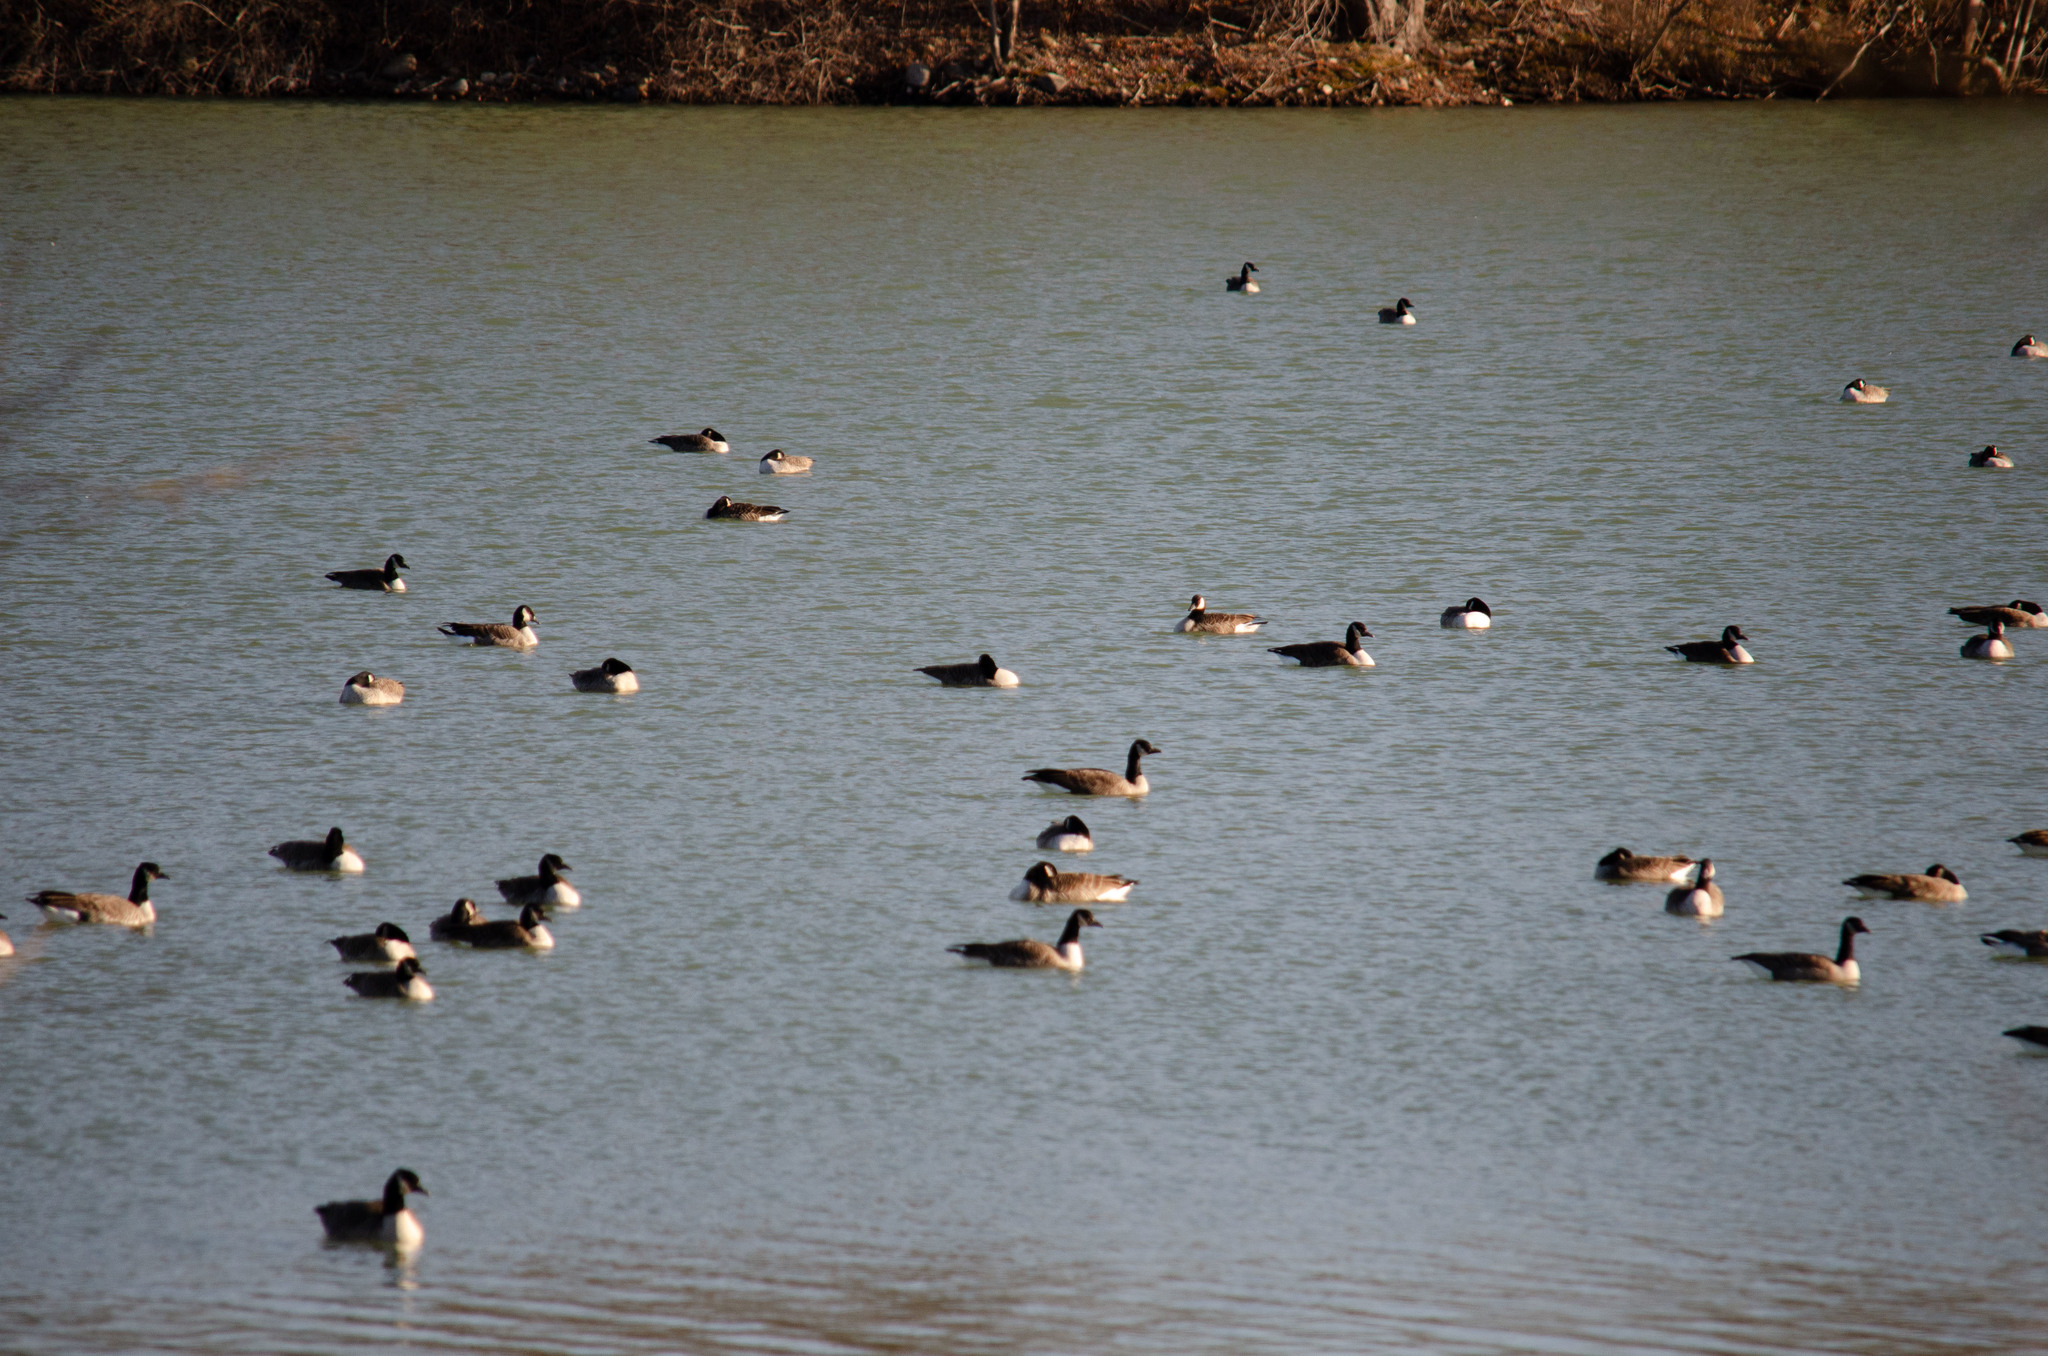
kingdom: Animalia
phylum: Chordata
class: Aves
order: Anseriformes
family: Anatidae
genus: Branta
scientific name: Branta canadensis
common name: Canada goose
